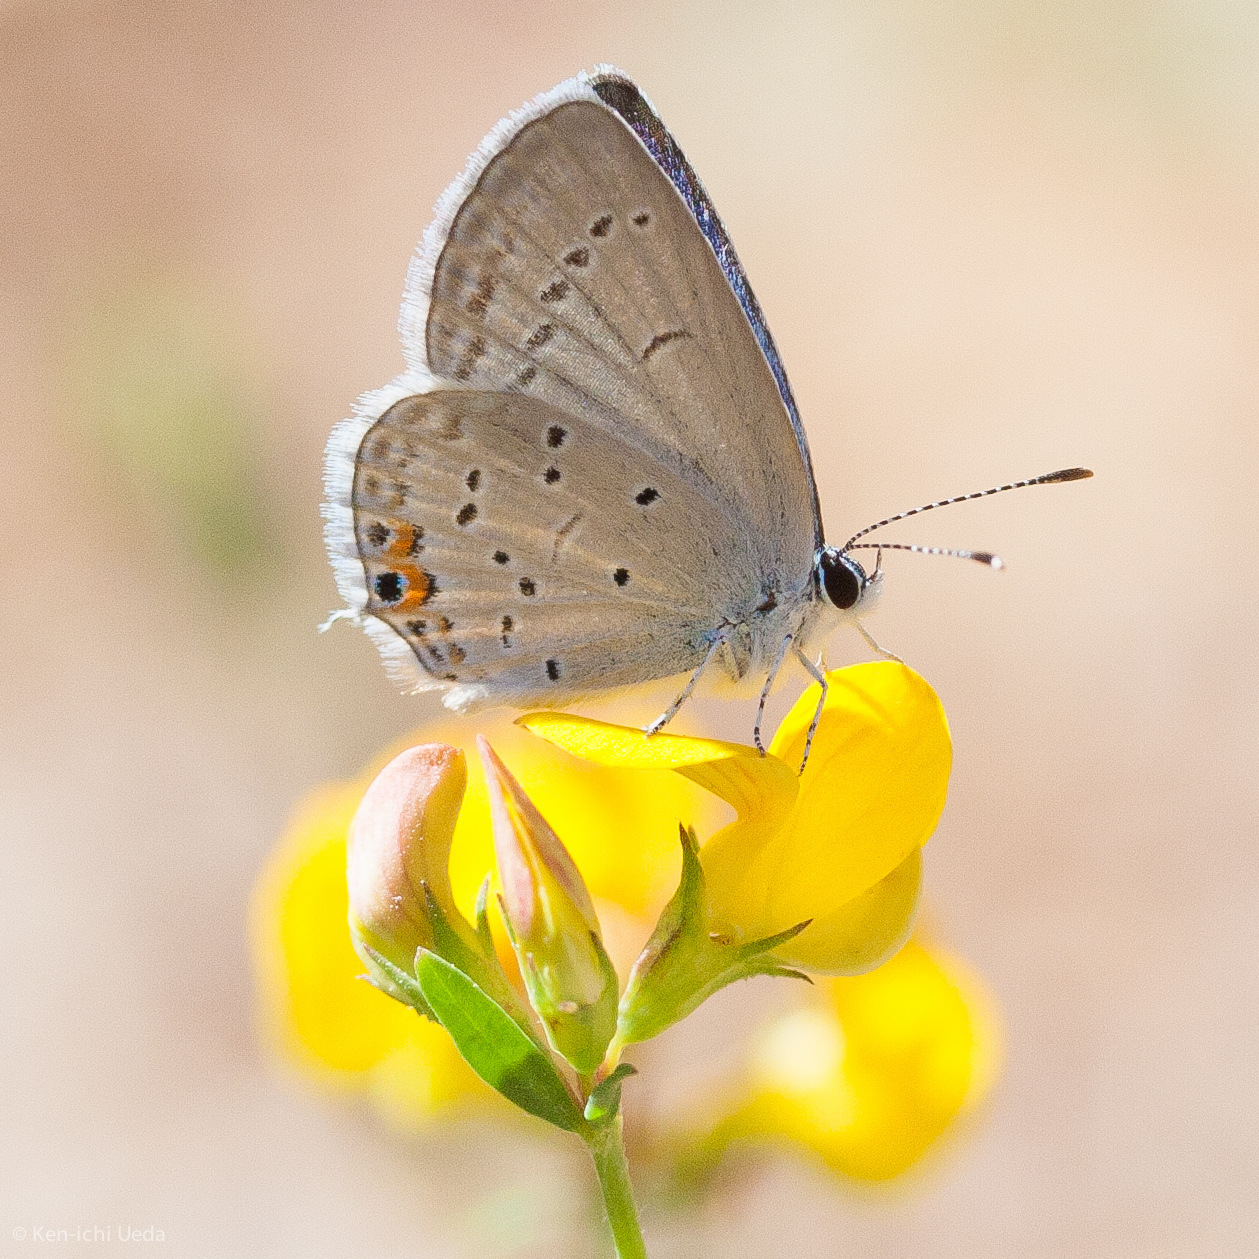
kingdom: Animalia
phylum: Arthropoda
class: Insecta
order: Lepidoptera
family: Lycaenidae
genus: Elkalyce
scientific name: Elkalyce comyntas
